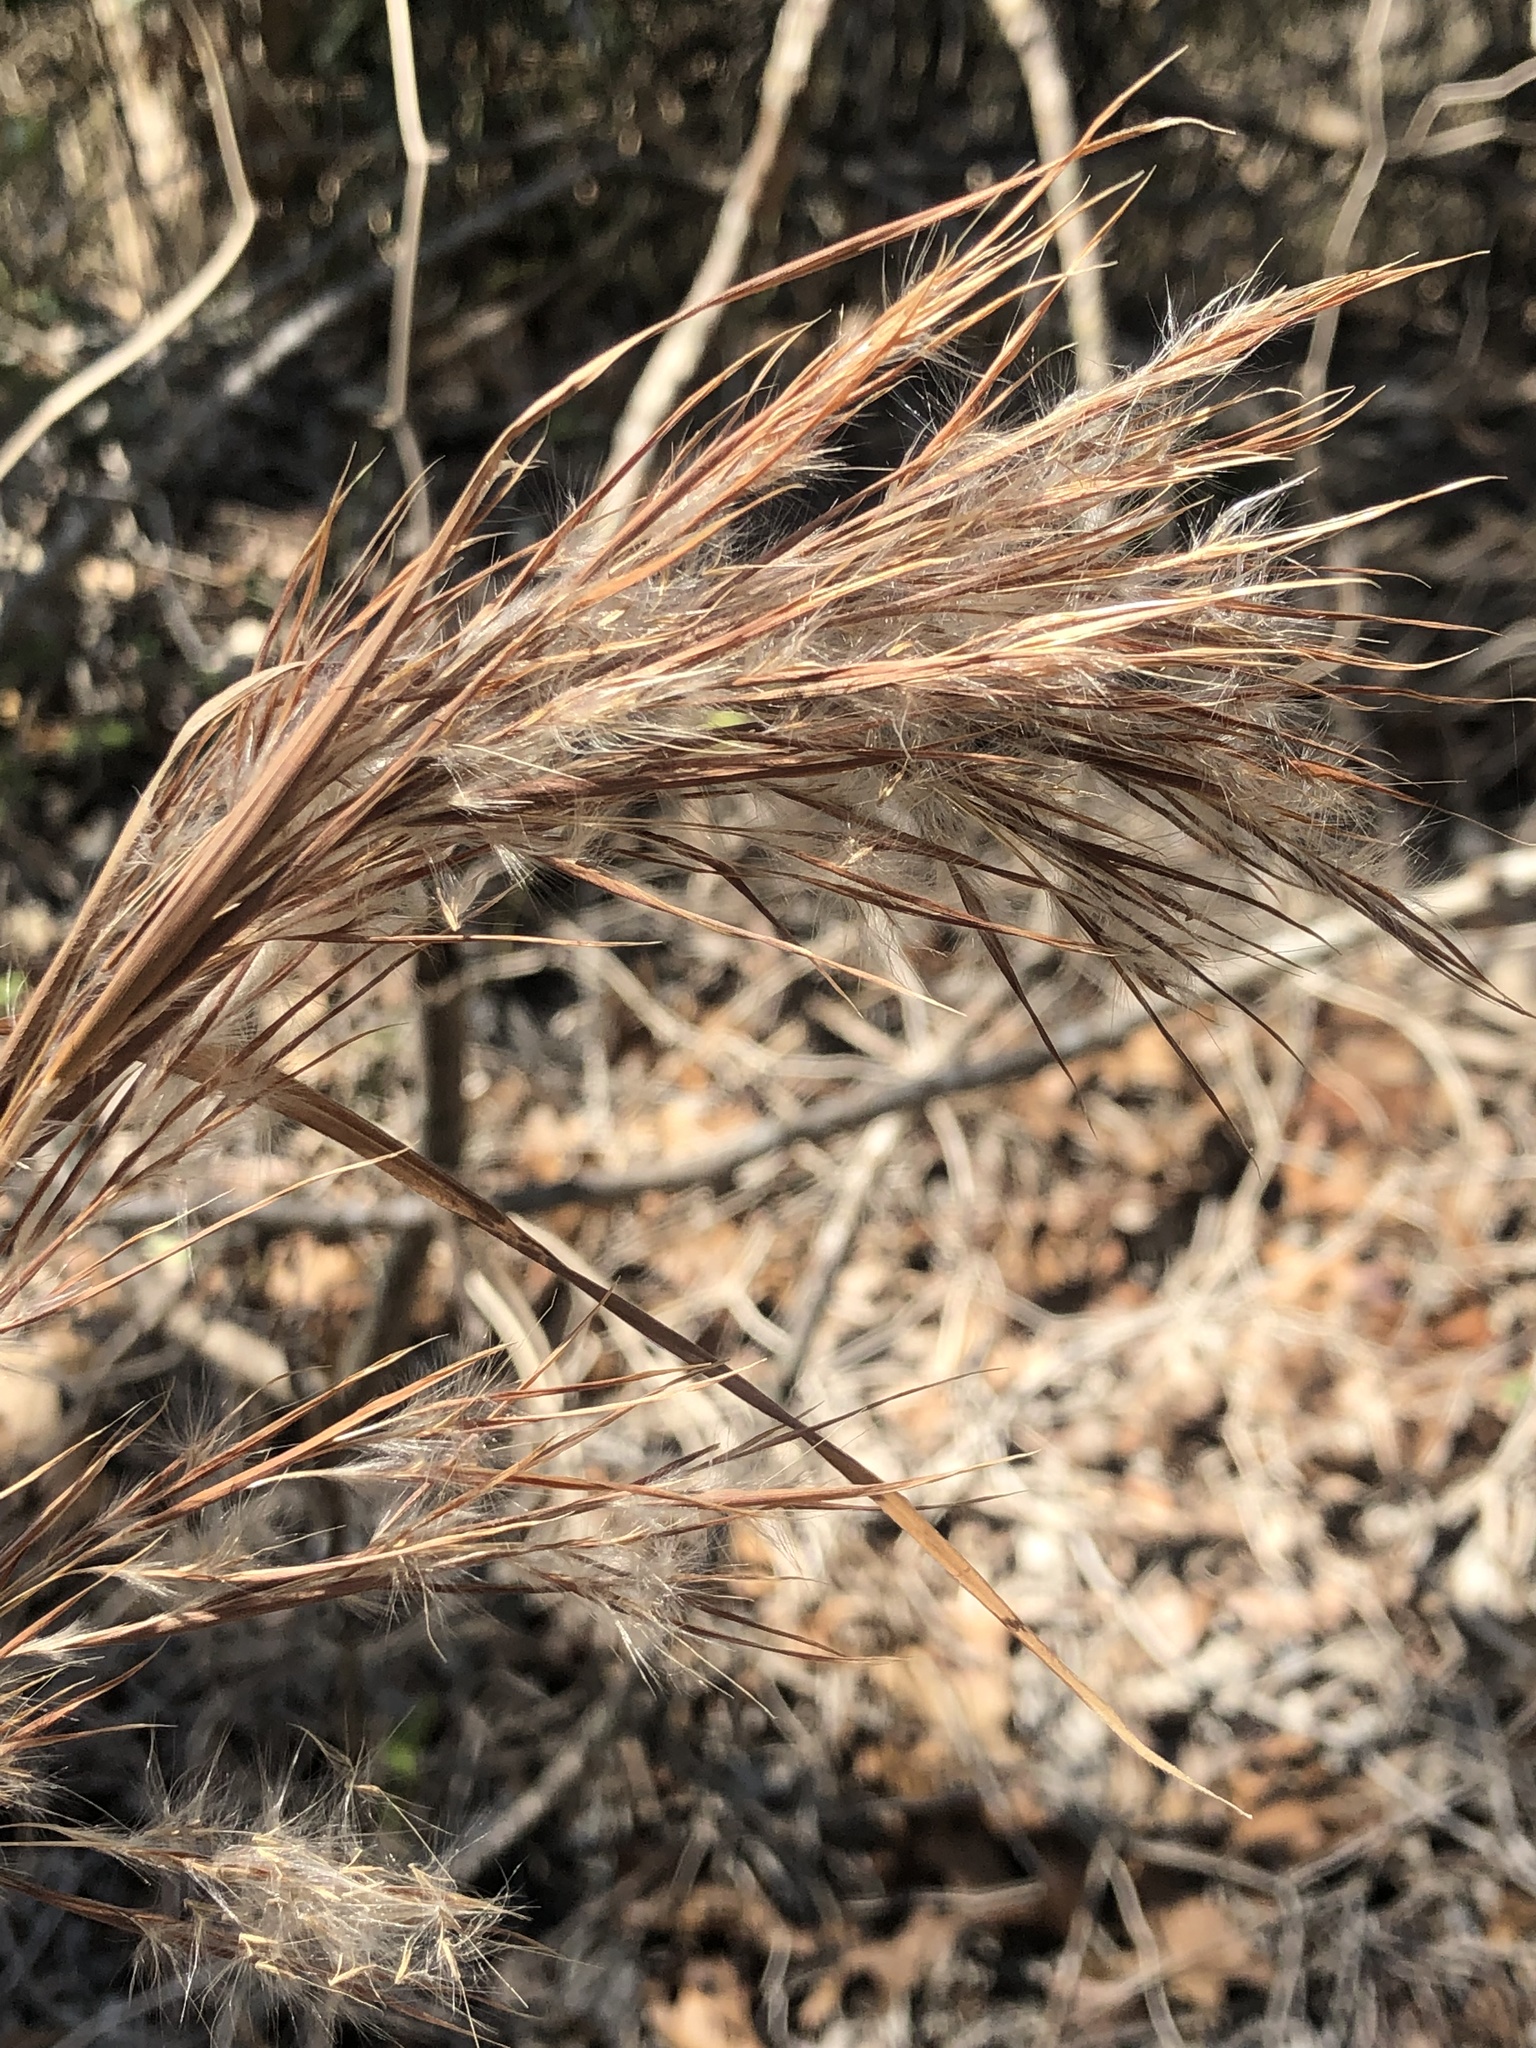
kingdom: Plantae
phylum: Tracheophyta
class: Liliopsida
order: Poales
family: Poaceae
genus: Andropogon
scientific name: Andropogon tenuispatheus
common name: Bushy bluestem
